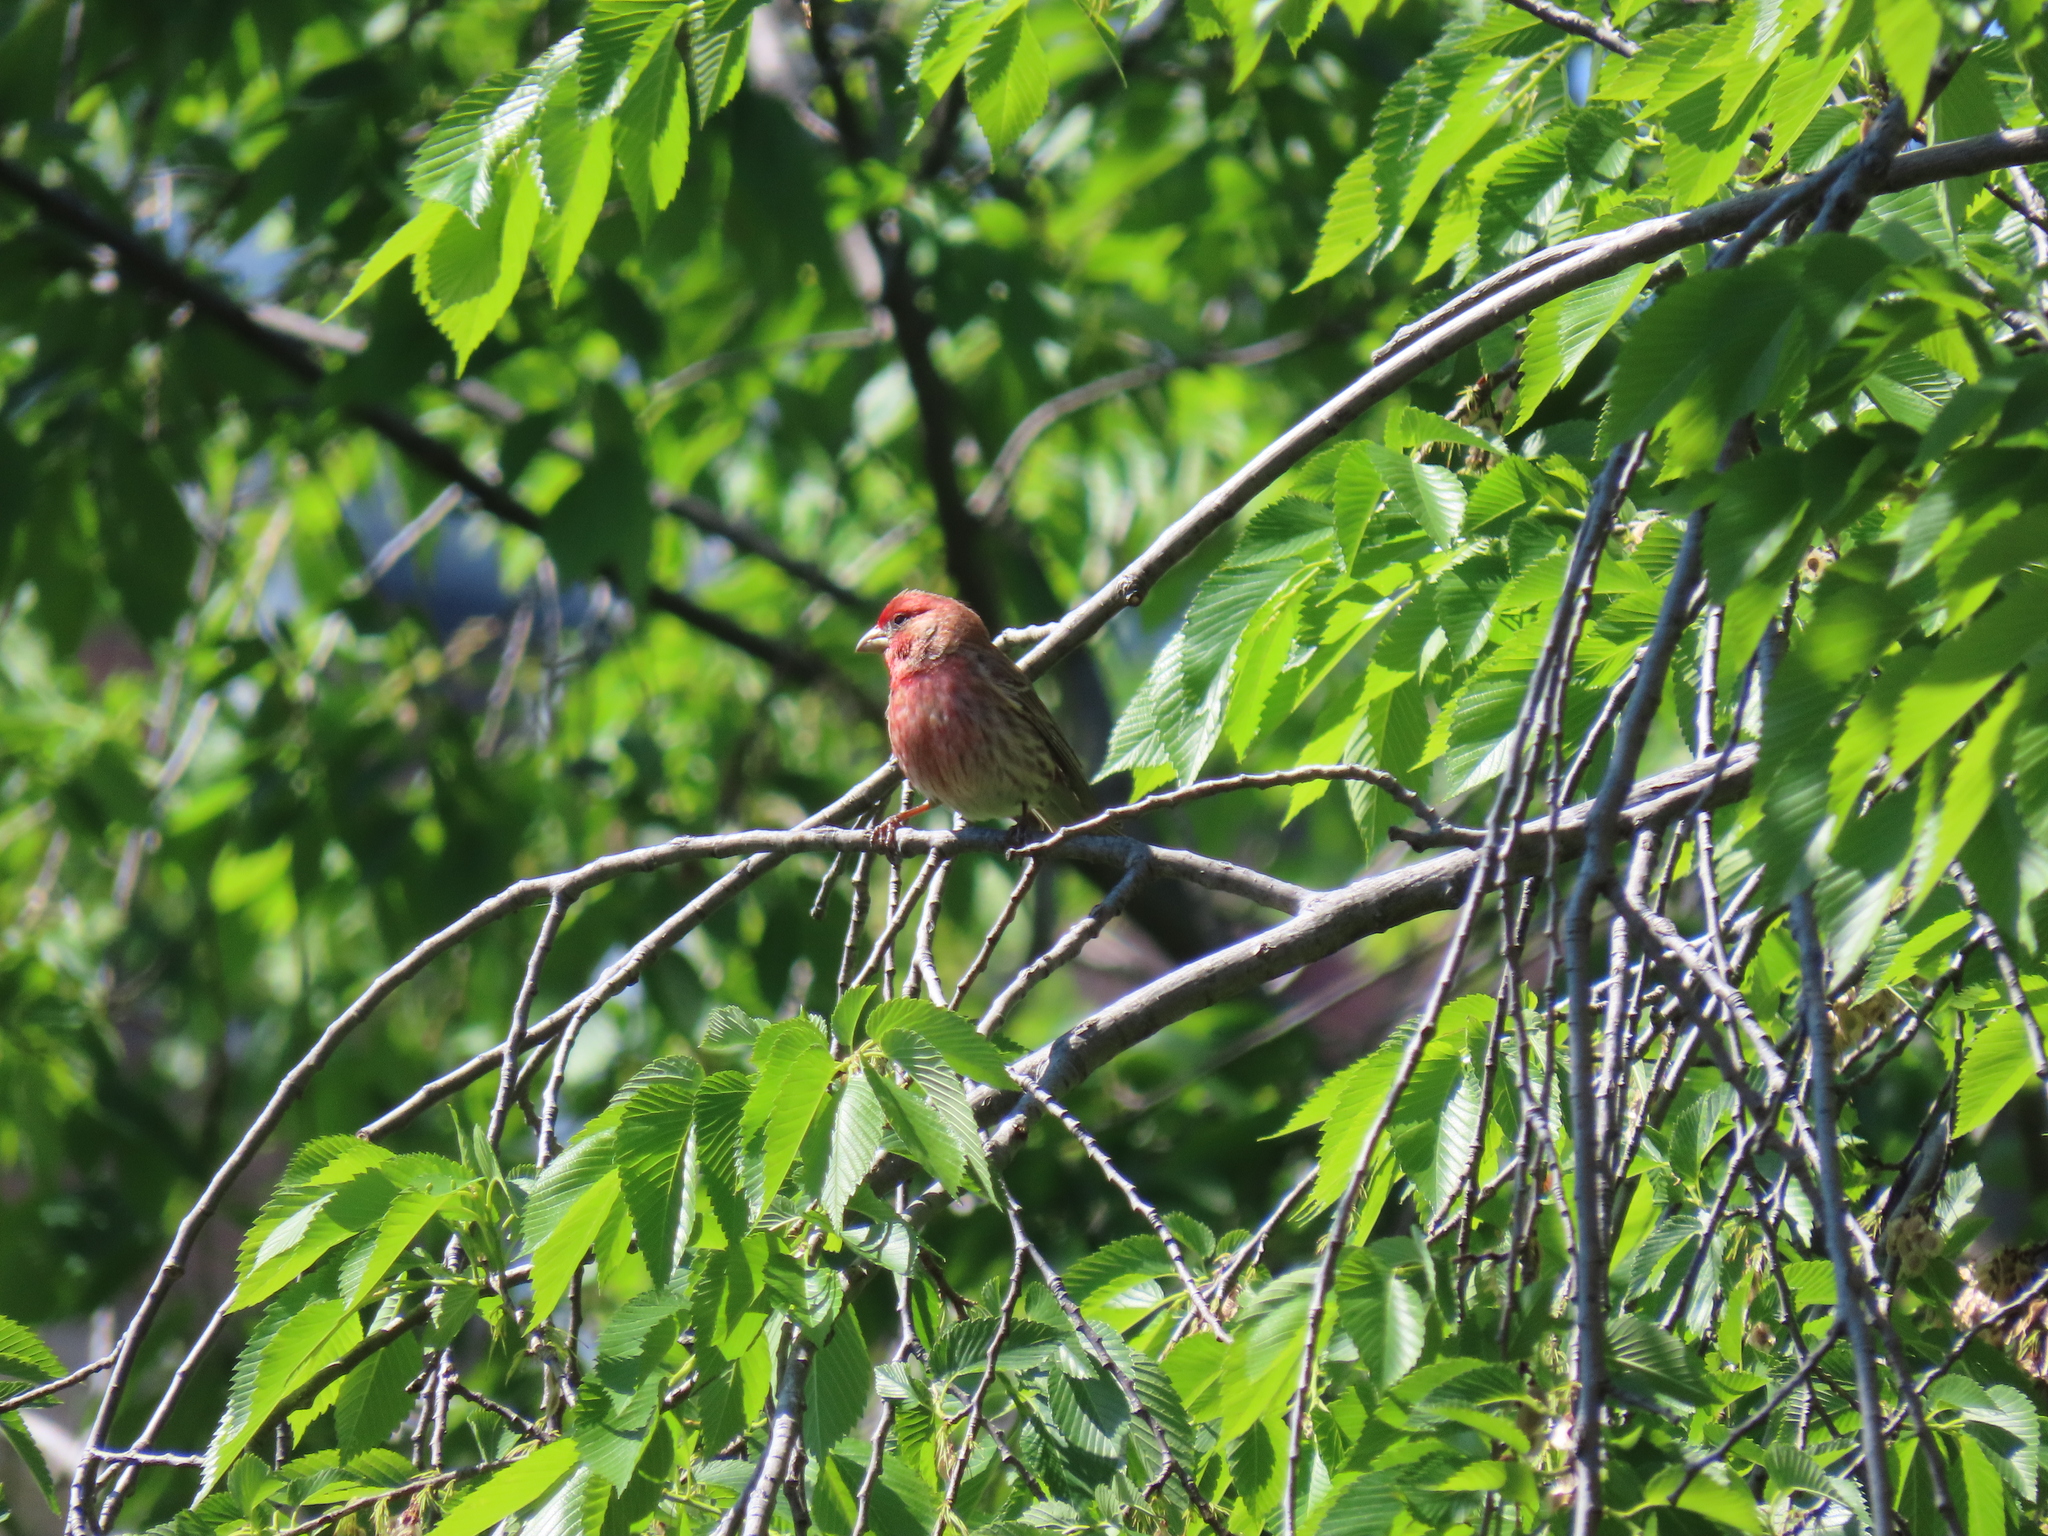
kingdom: Animalia
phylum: Chordata
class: Aves
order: Passeriformes
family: Fringillidae
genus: Haemorhous
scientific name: Haemorhous mexicanus
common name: House finch
